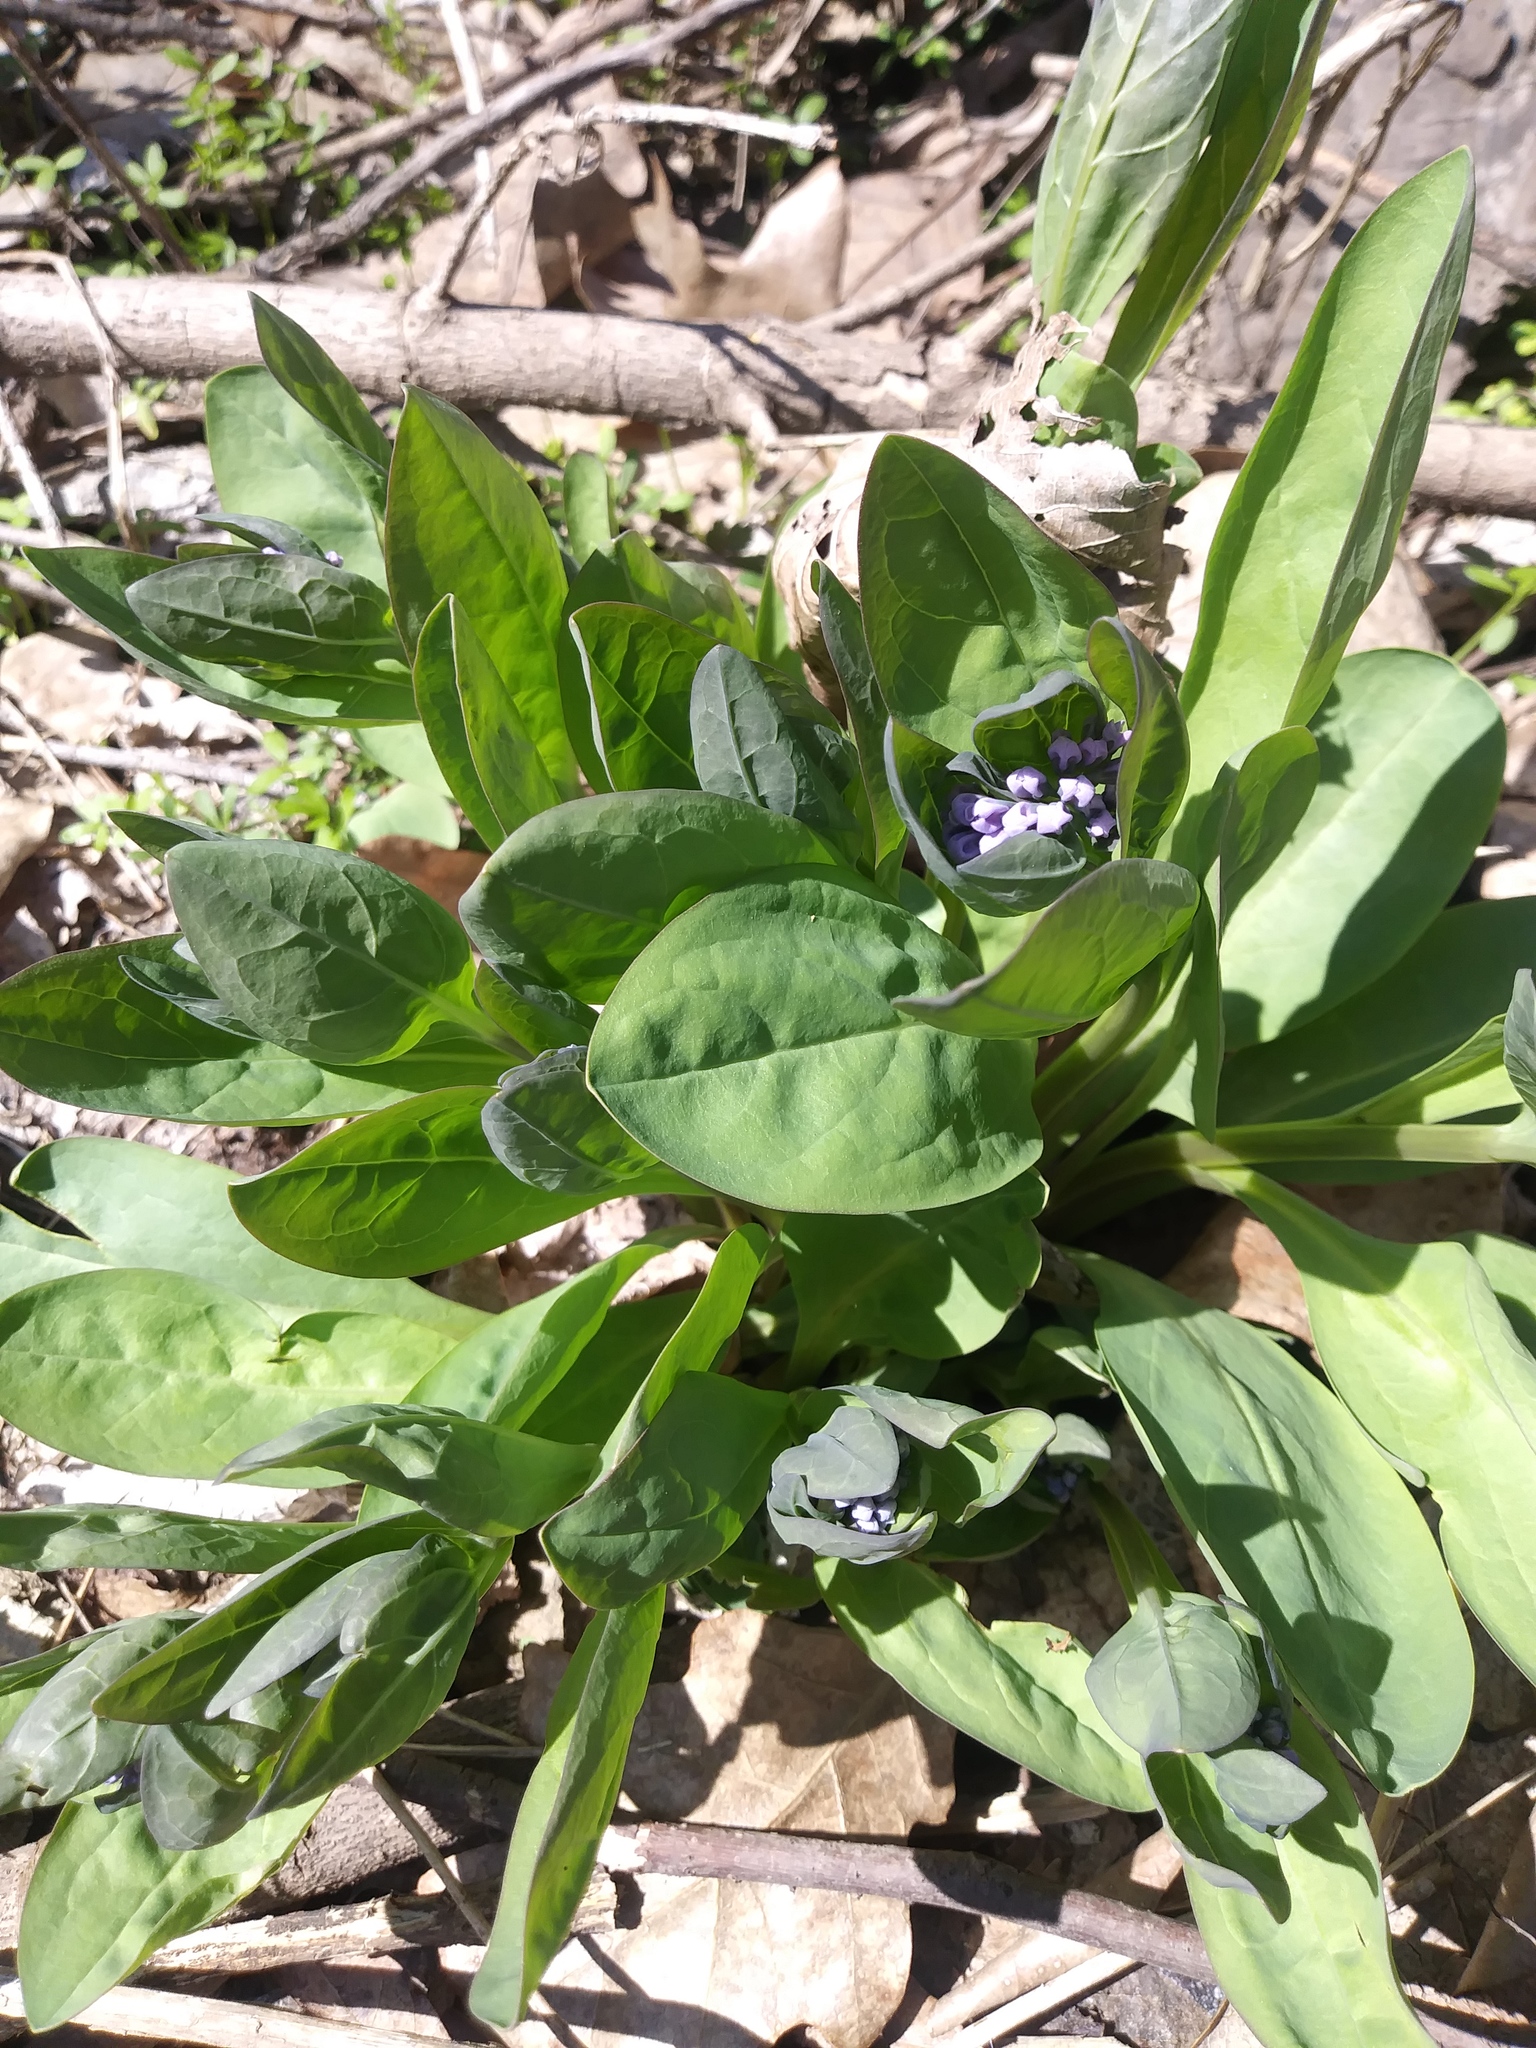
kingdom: Plantae
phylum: Tracheophyta
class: Magnoliopsida
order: Boraginales
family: Boraginaceae
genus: Mertensia
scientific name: Mertensia virginica
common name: Virginia bluebells
